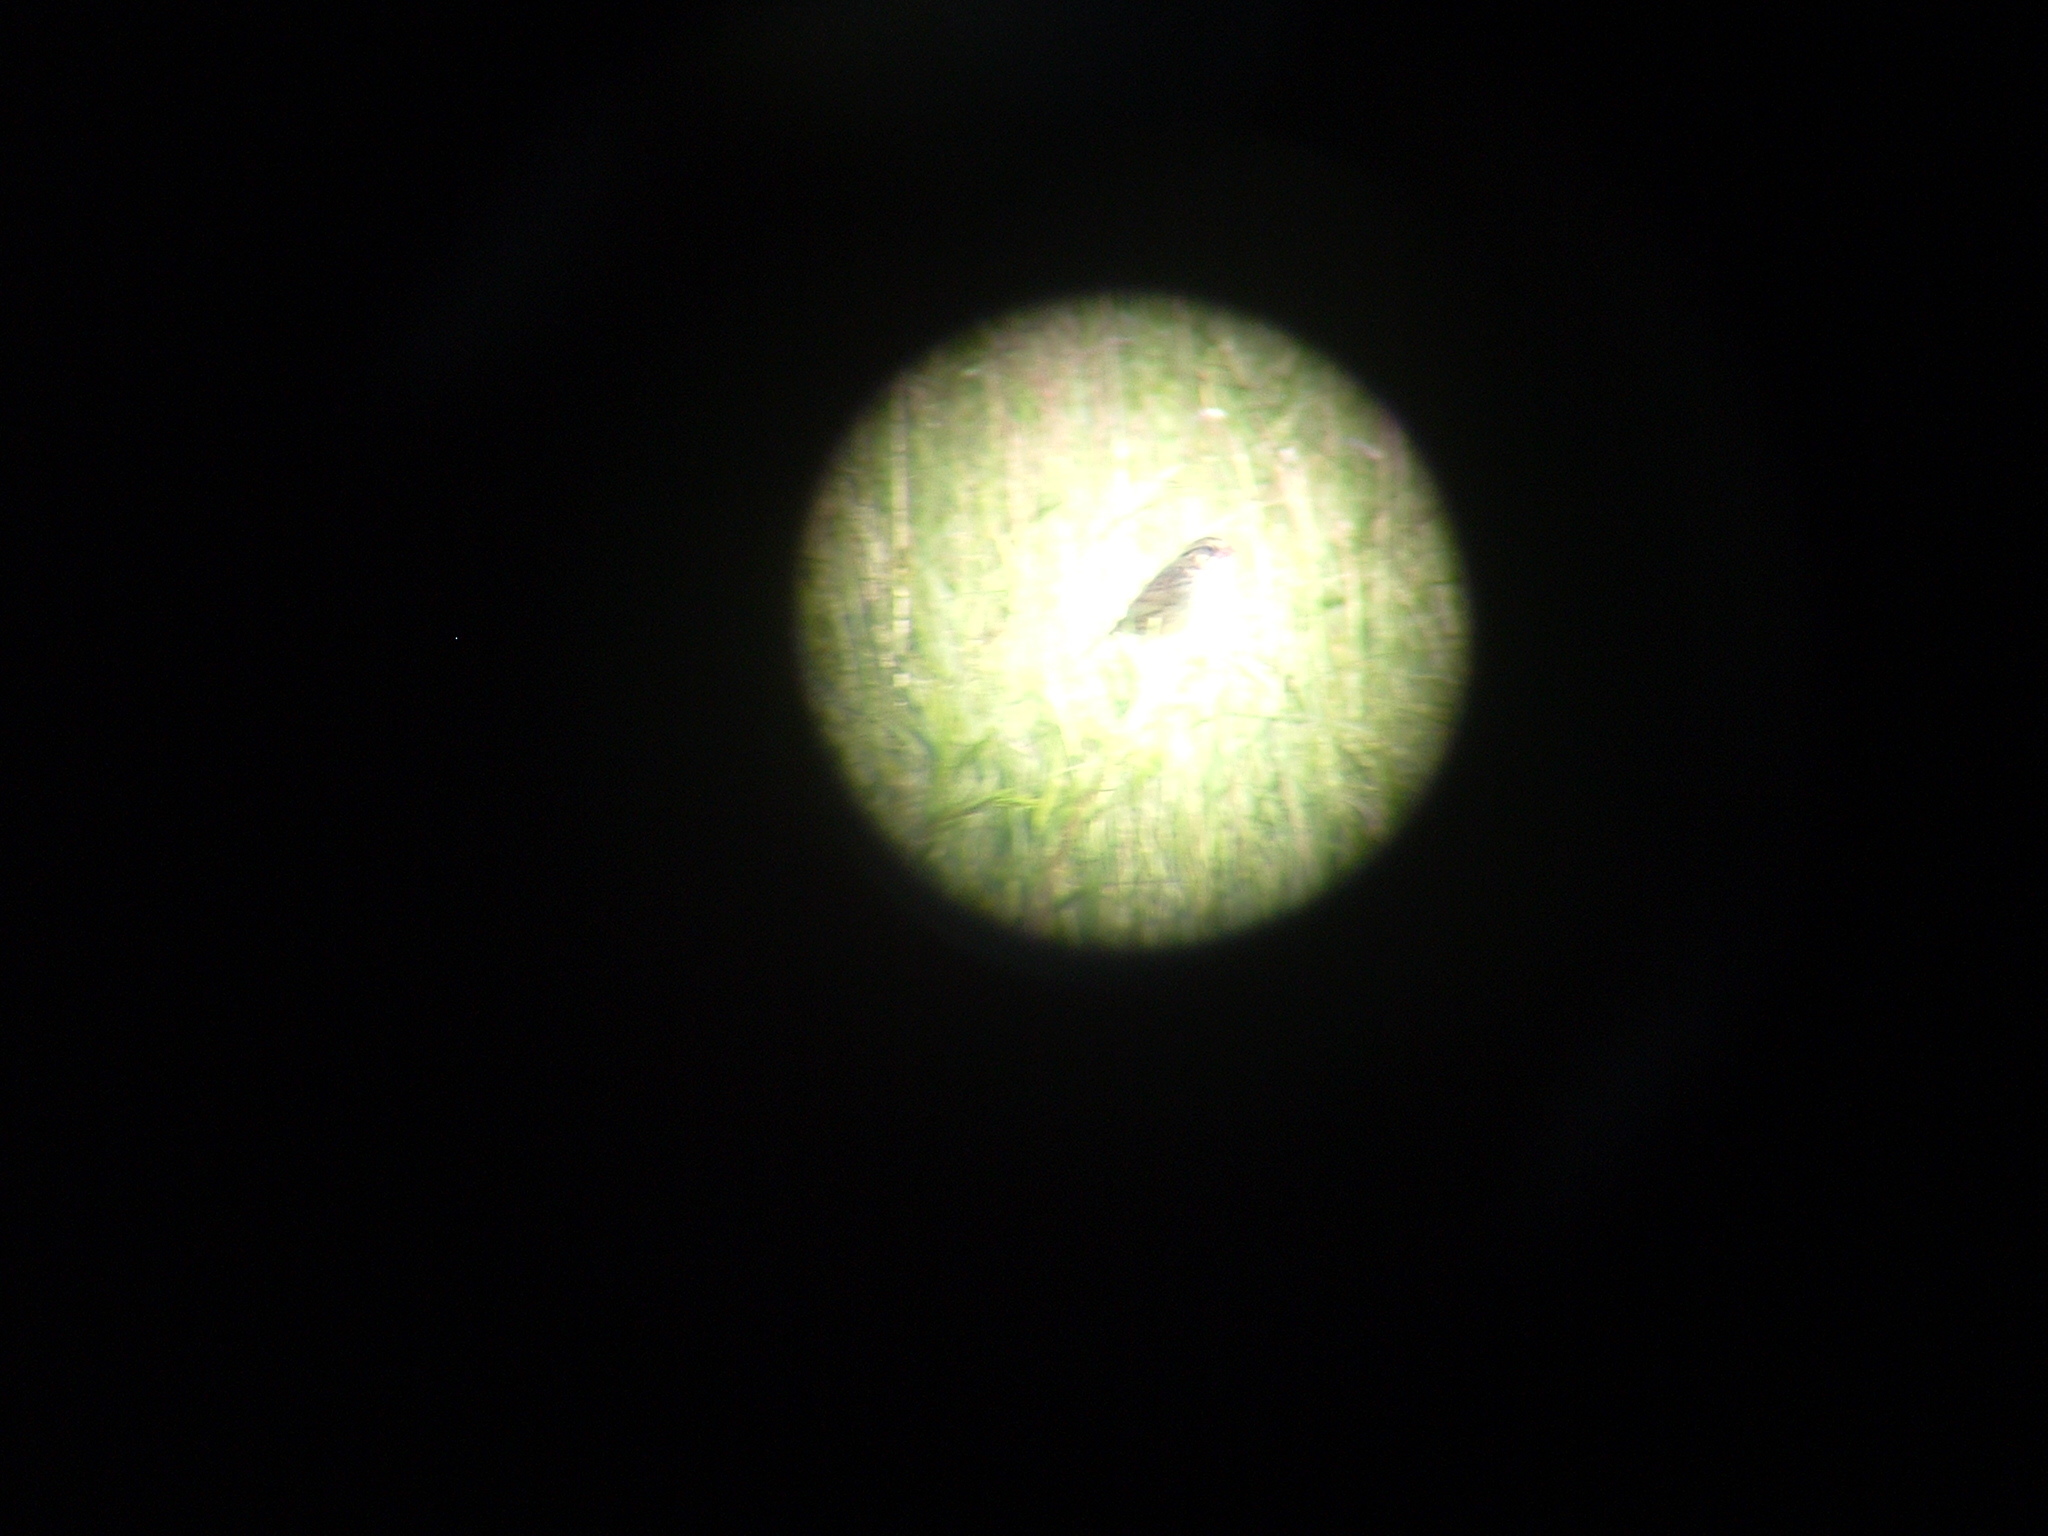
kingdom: Animalia
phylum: Chordata
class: Aves
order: Passeriformes
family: Passerellidae
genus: Centronyx
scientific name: Centronyx henslowii
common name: Henslow's sparrow
